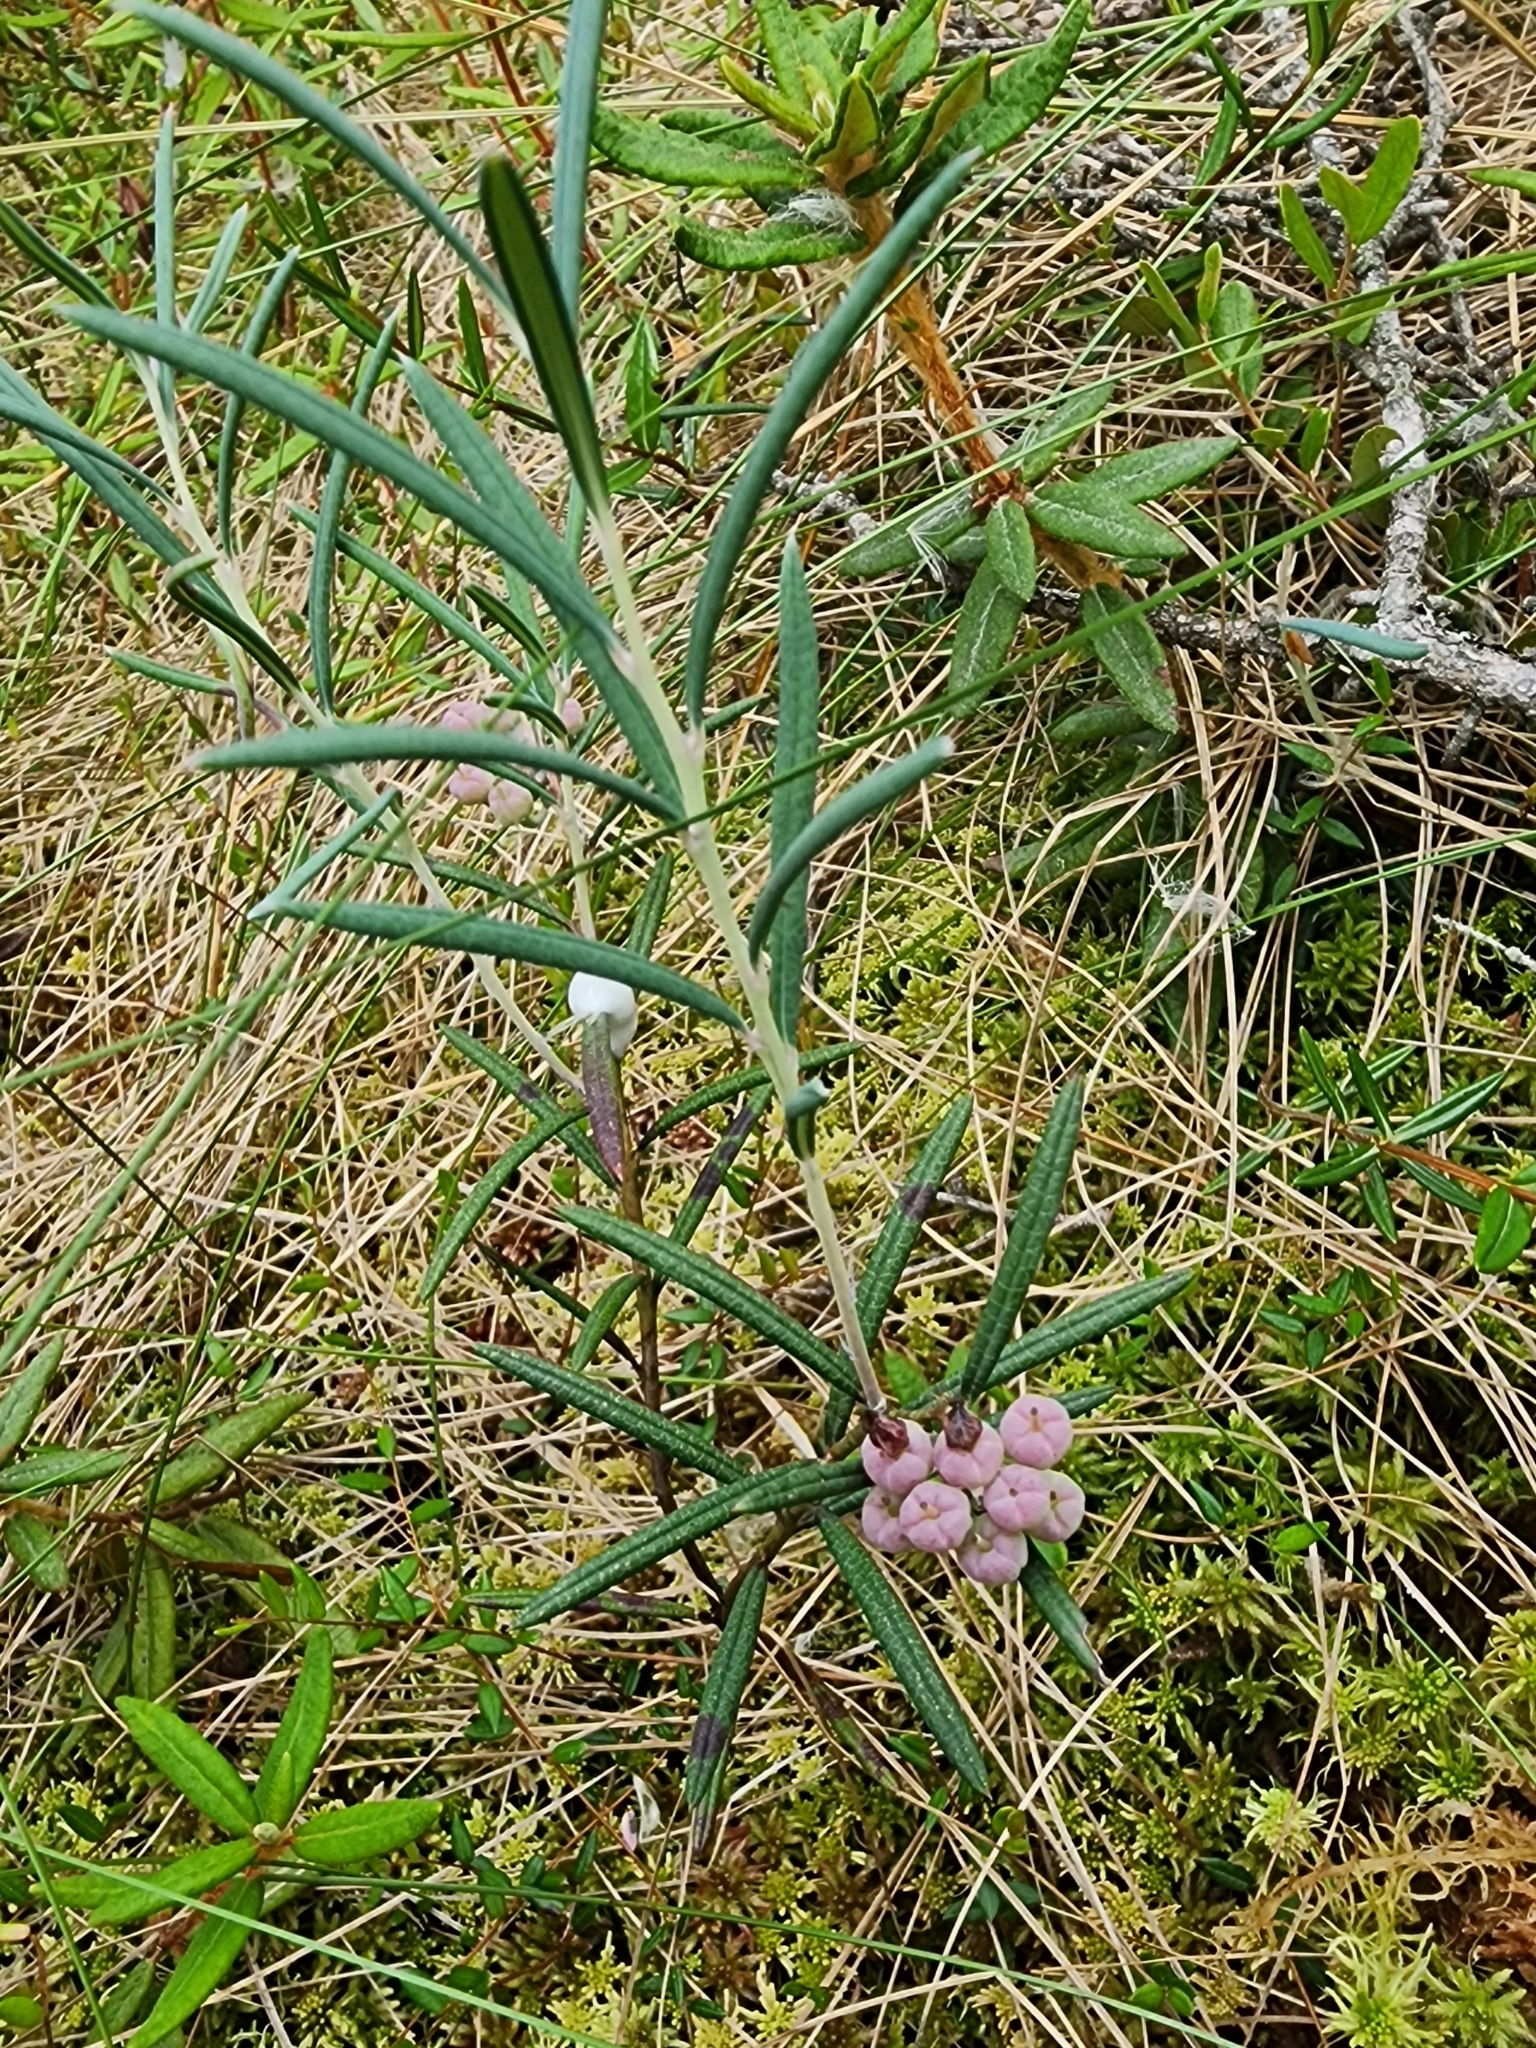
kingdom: Plantae
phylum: Tracheophyta
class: Magnoliopsida
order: Ericales
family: Ericaceae
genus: Andromeda
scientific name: Andromeda polifolia
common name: Bog-rosemary
